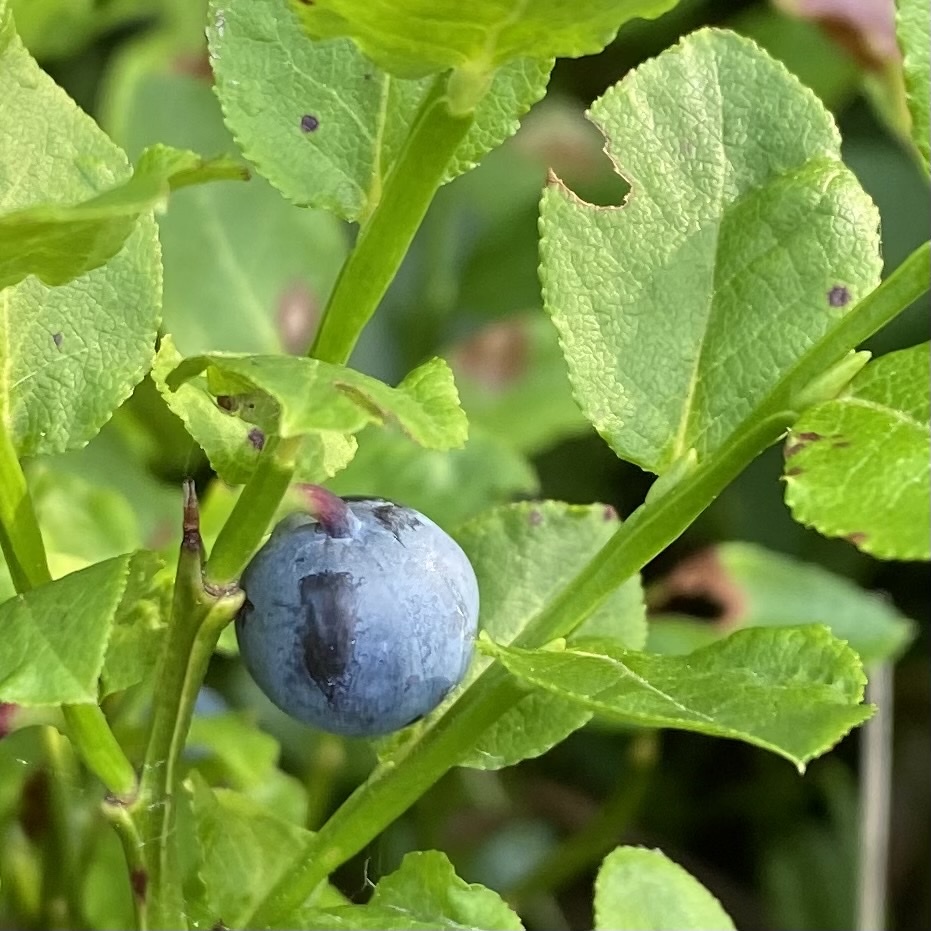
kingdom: Plantae
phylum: Tracheophyta
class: Magnoliopsida
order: Ericales
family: Ericaceae
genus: Vaccinium
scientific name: Vaccinium myrtillus
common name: Bilberry
